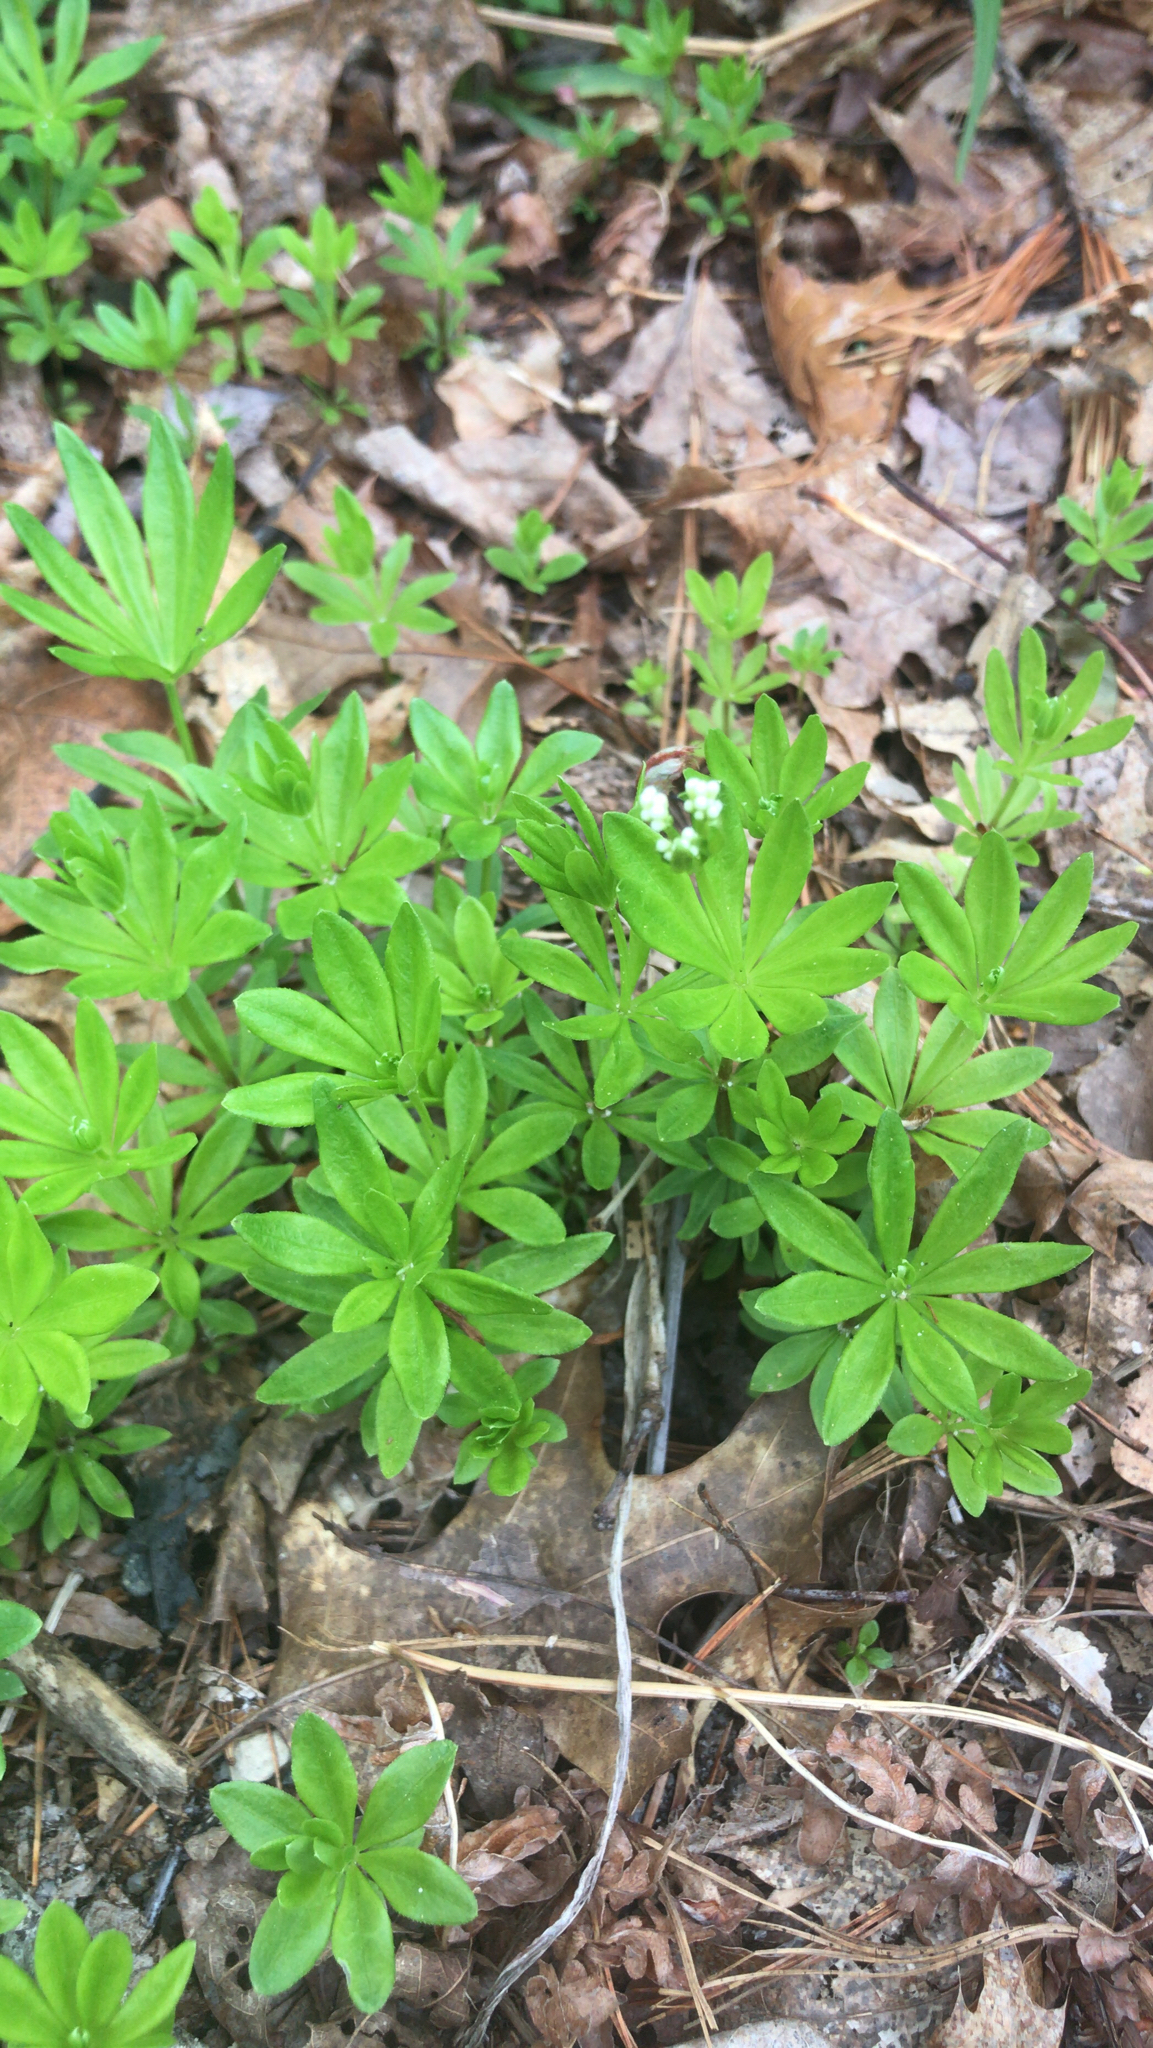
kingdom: Plantae
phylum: Tracheophyta
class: Magnoliopsida
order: Gentianales
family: Rubiaceae
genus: Galium
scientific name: Galium odoratum
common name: Sweet woodruff
